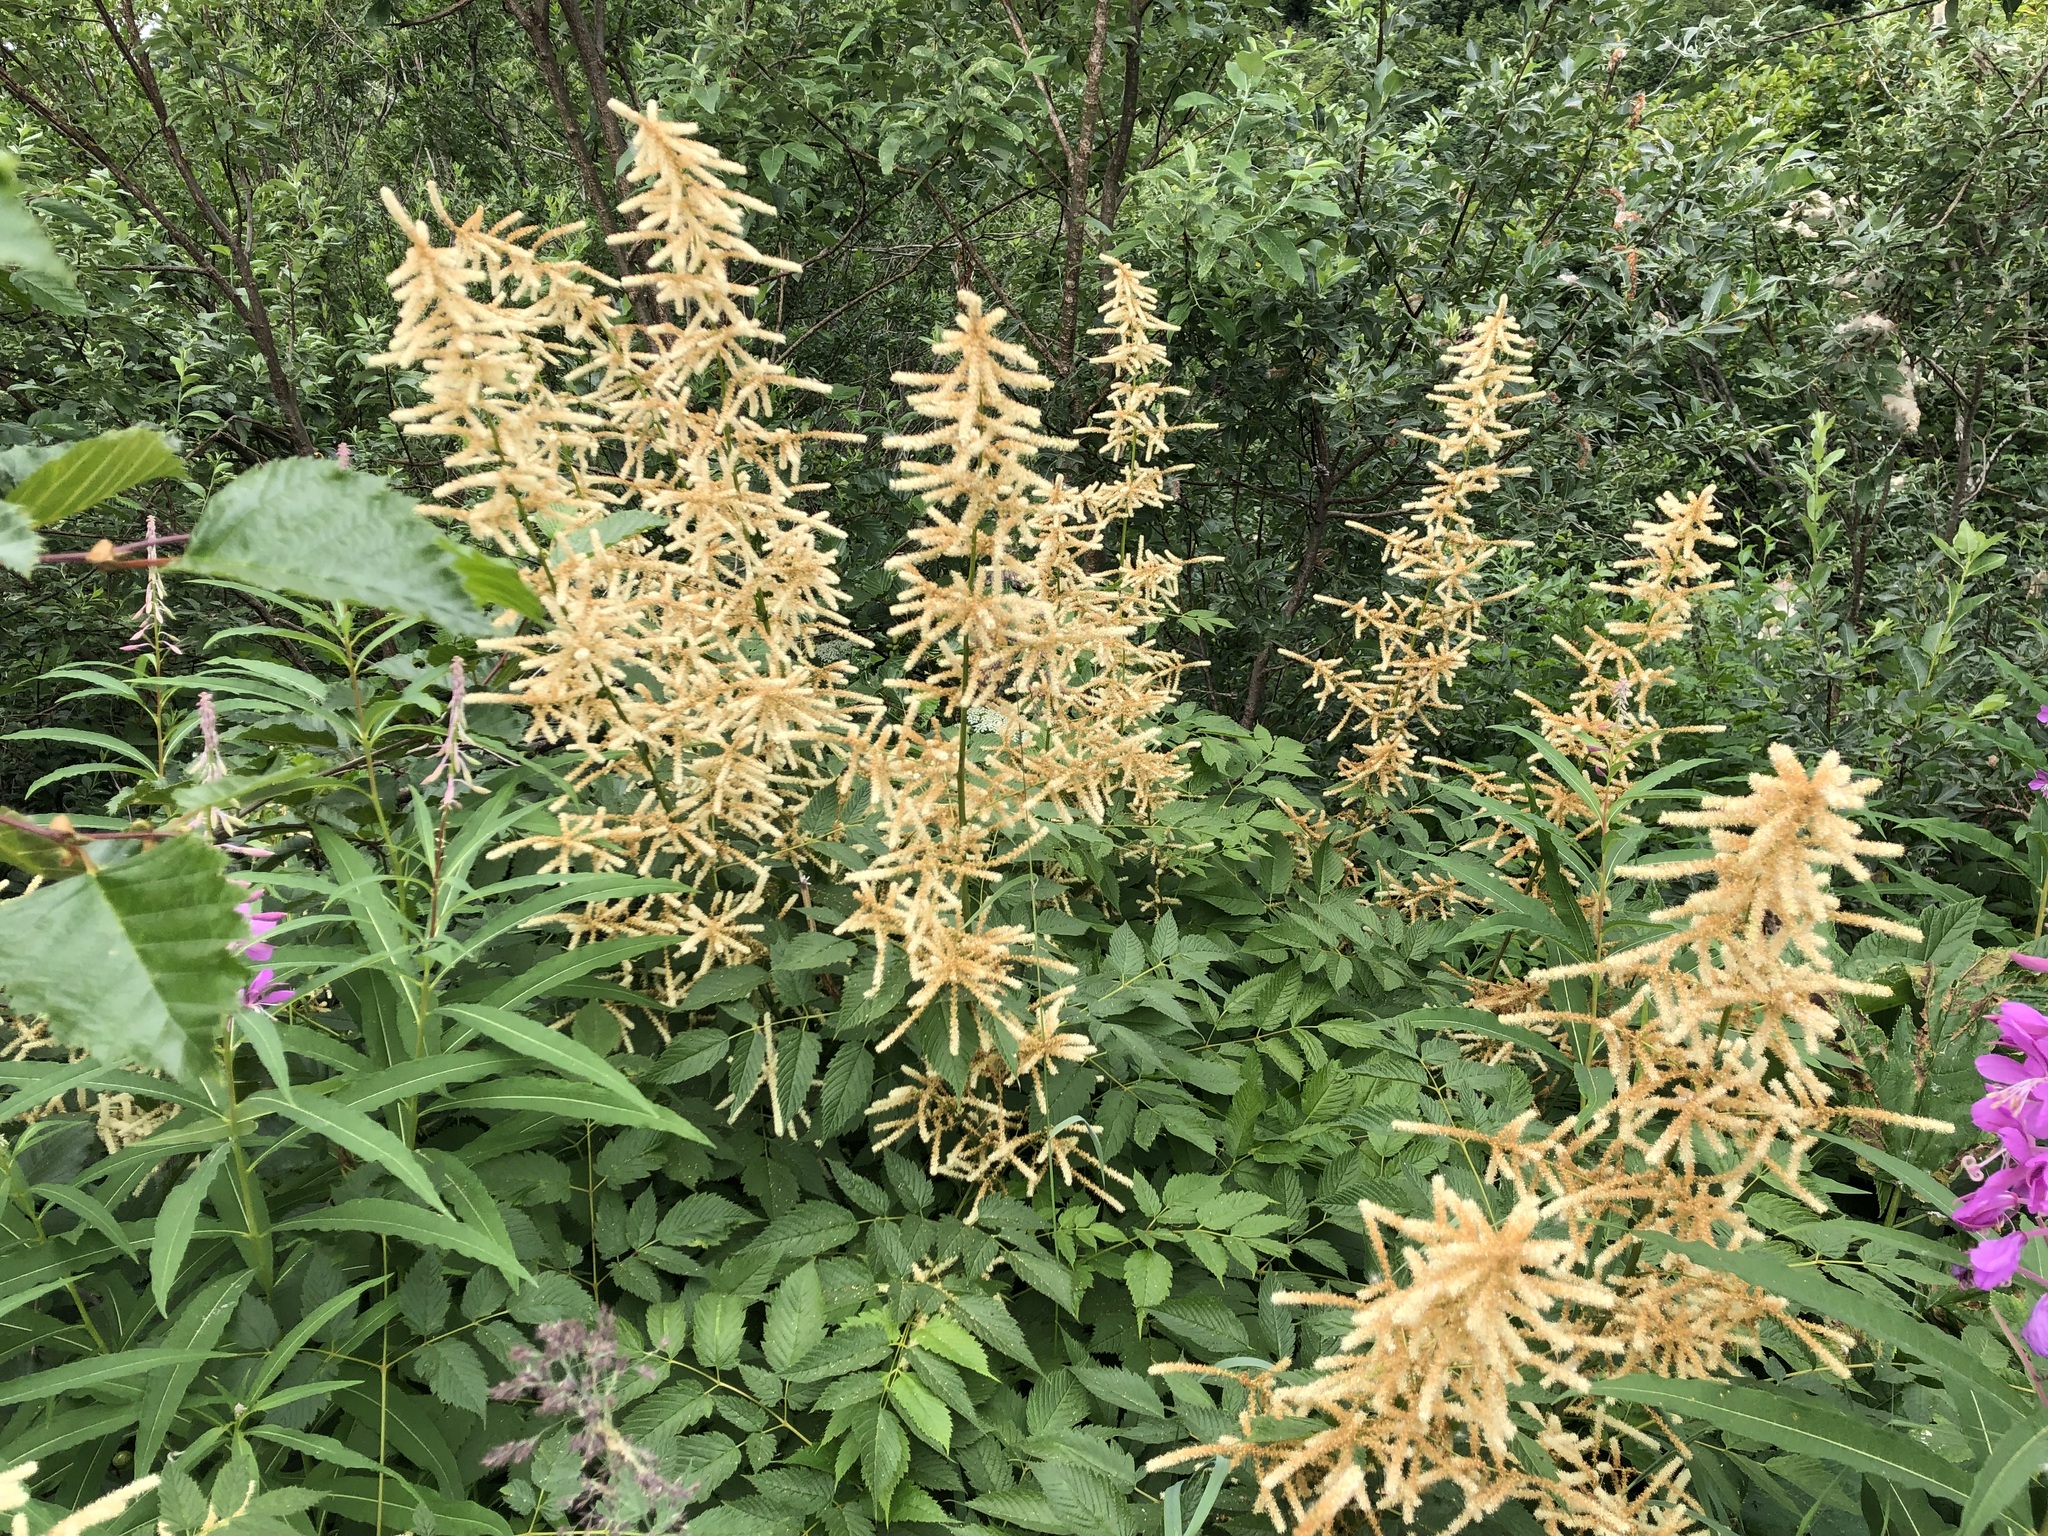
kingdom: Plantae
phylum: Tracheophyta
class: Magnoliopsida
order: Rosales
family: Rosaceae
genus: Aruncus
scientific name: Aruncus dioicus
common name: Buck's-beard
